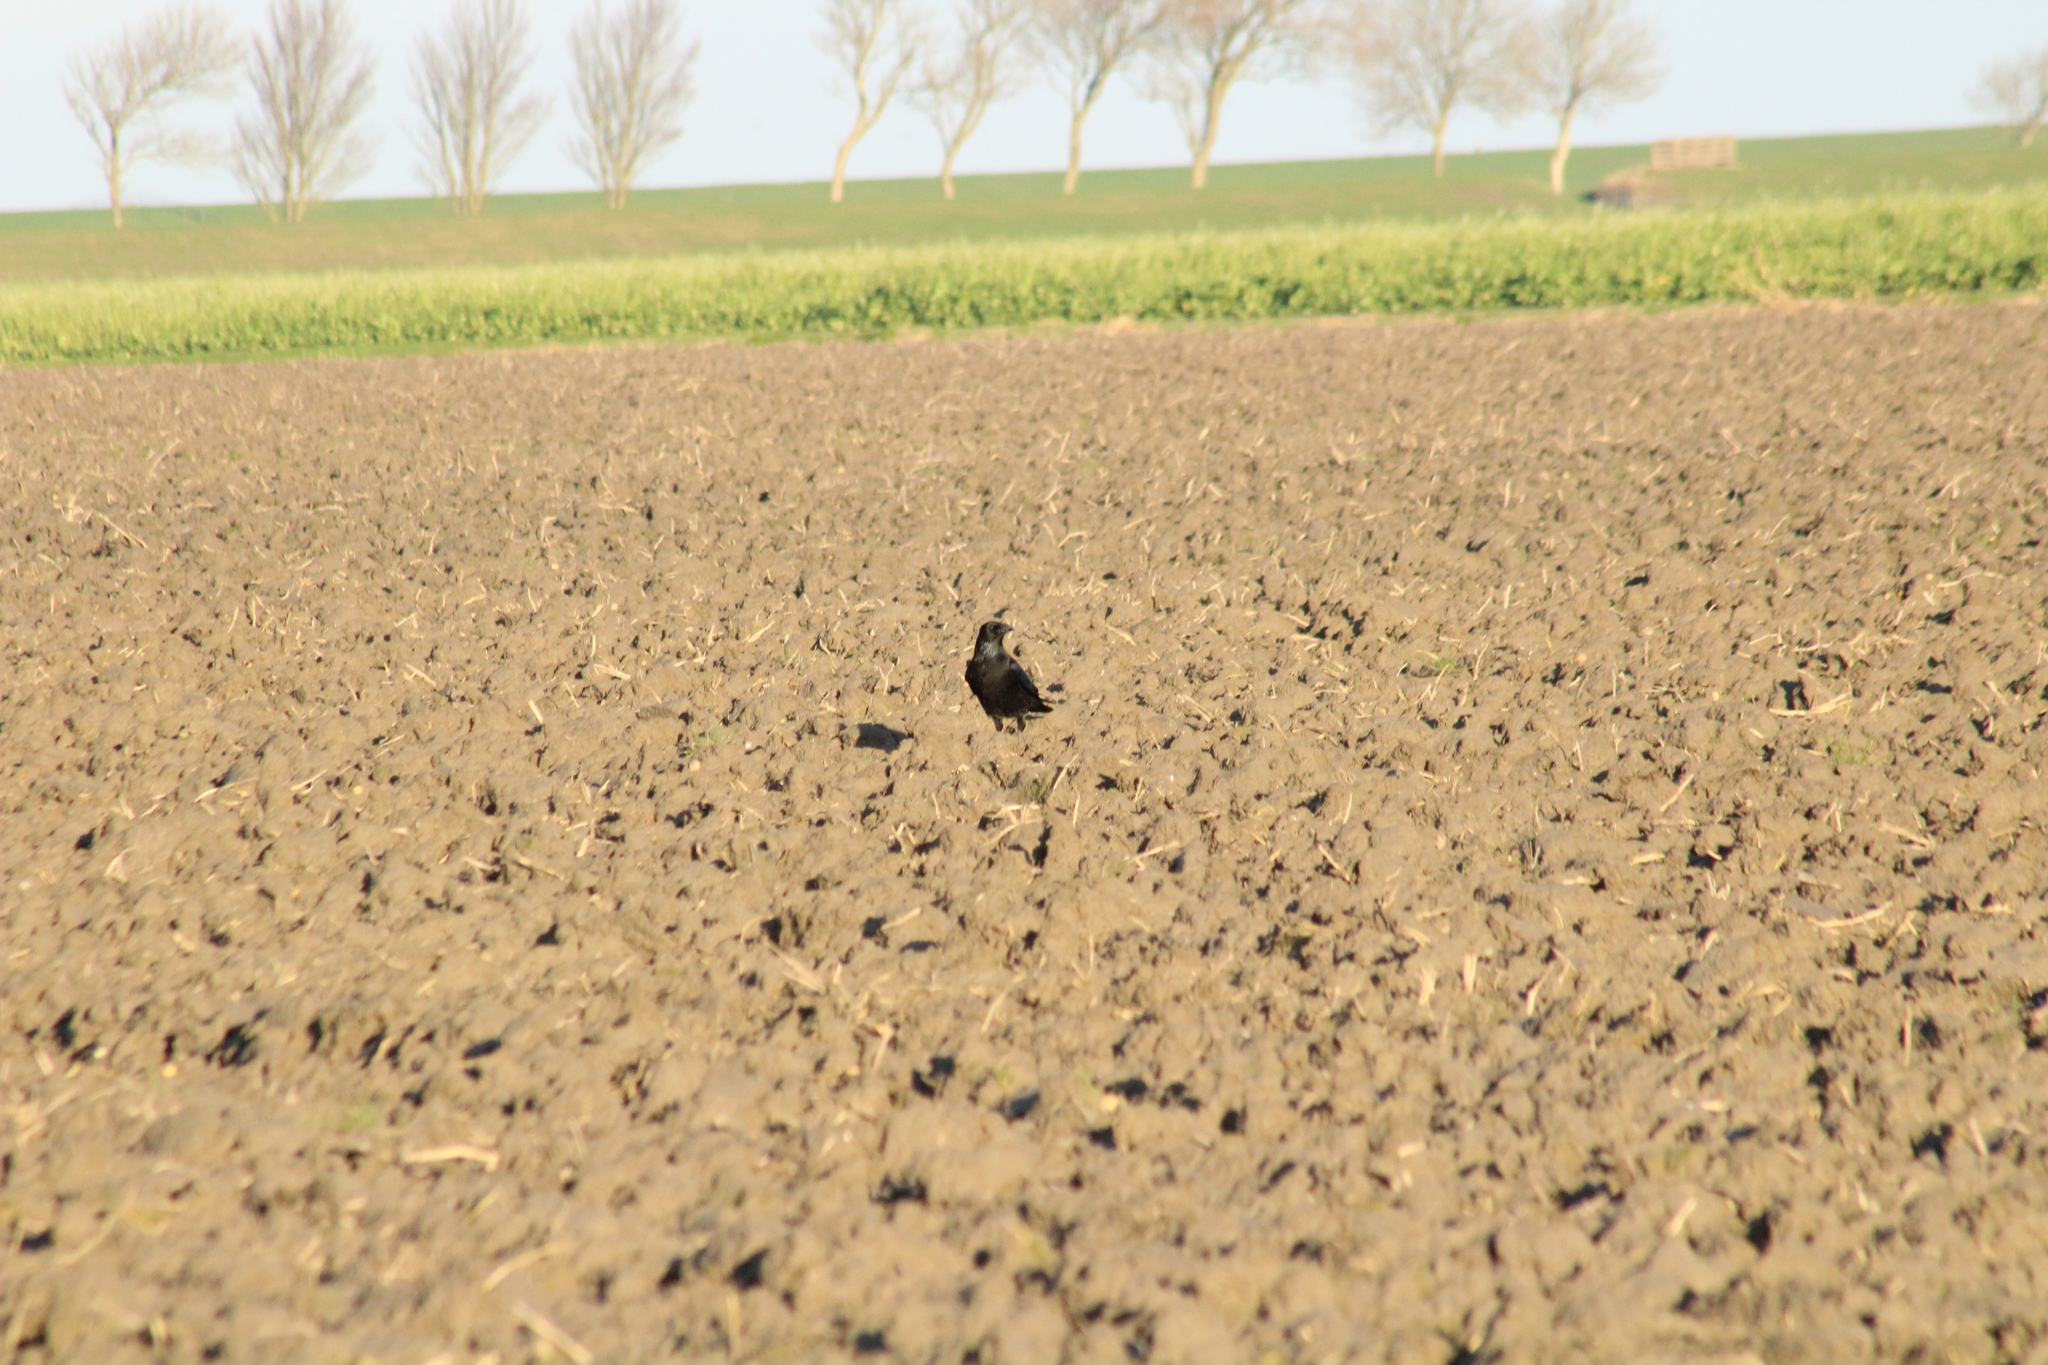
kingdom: Animalia
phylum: Chordata
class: Aves
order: Passeriformes
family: Corvidae
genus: Corvus
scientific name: Corvus corone
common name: Carrion crow
